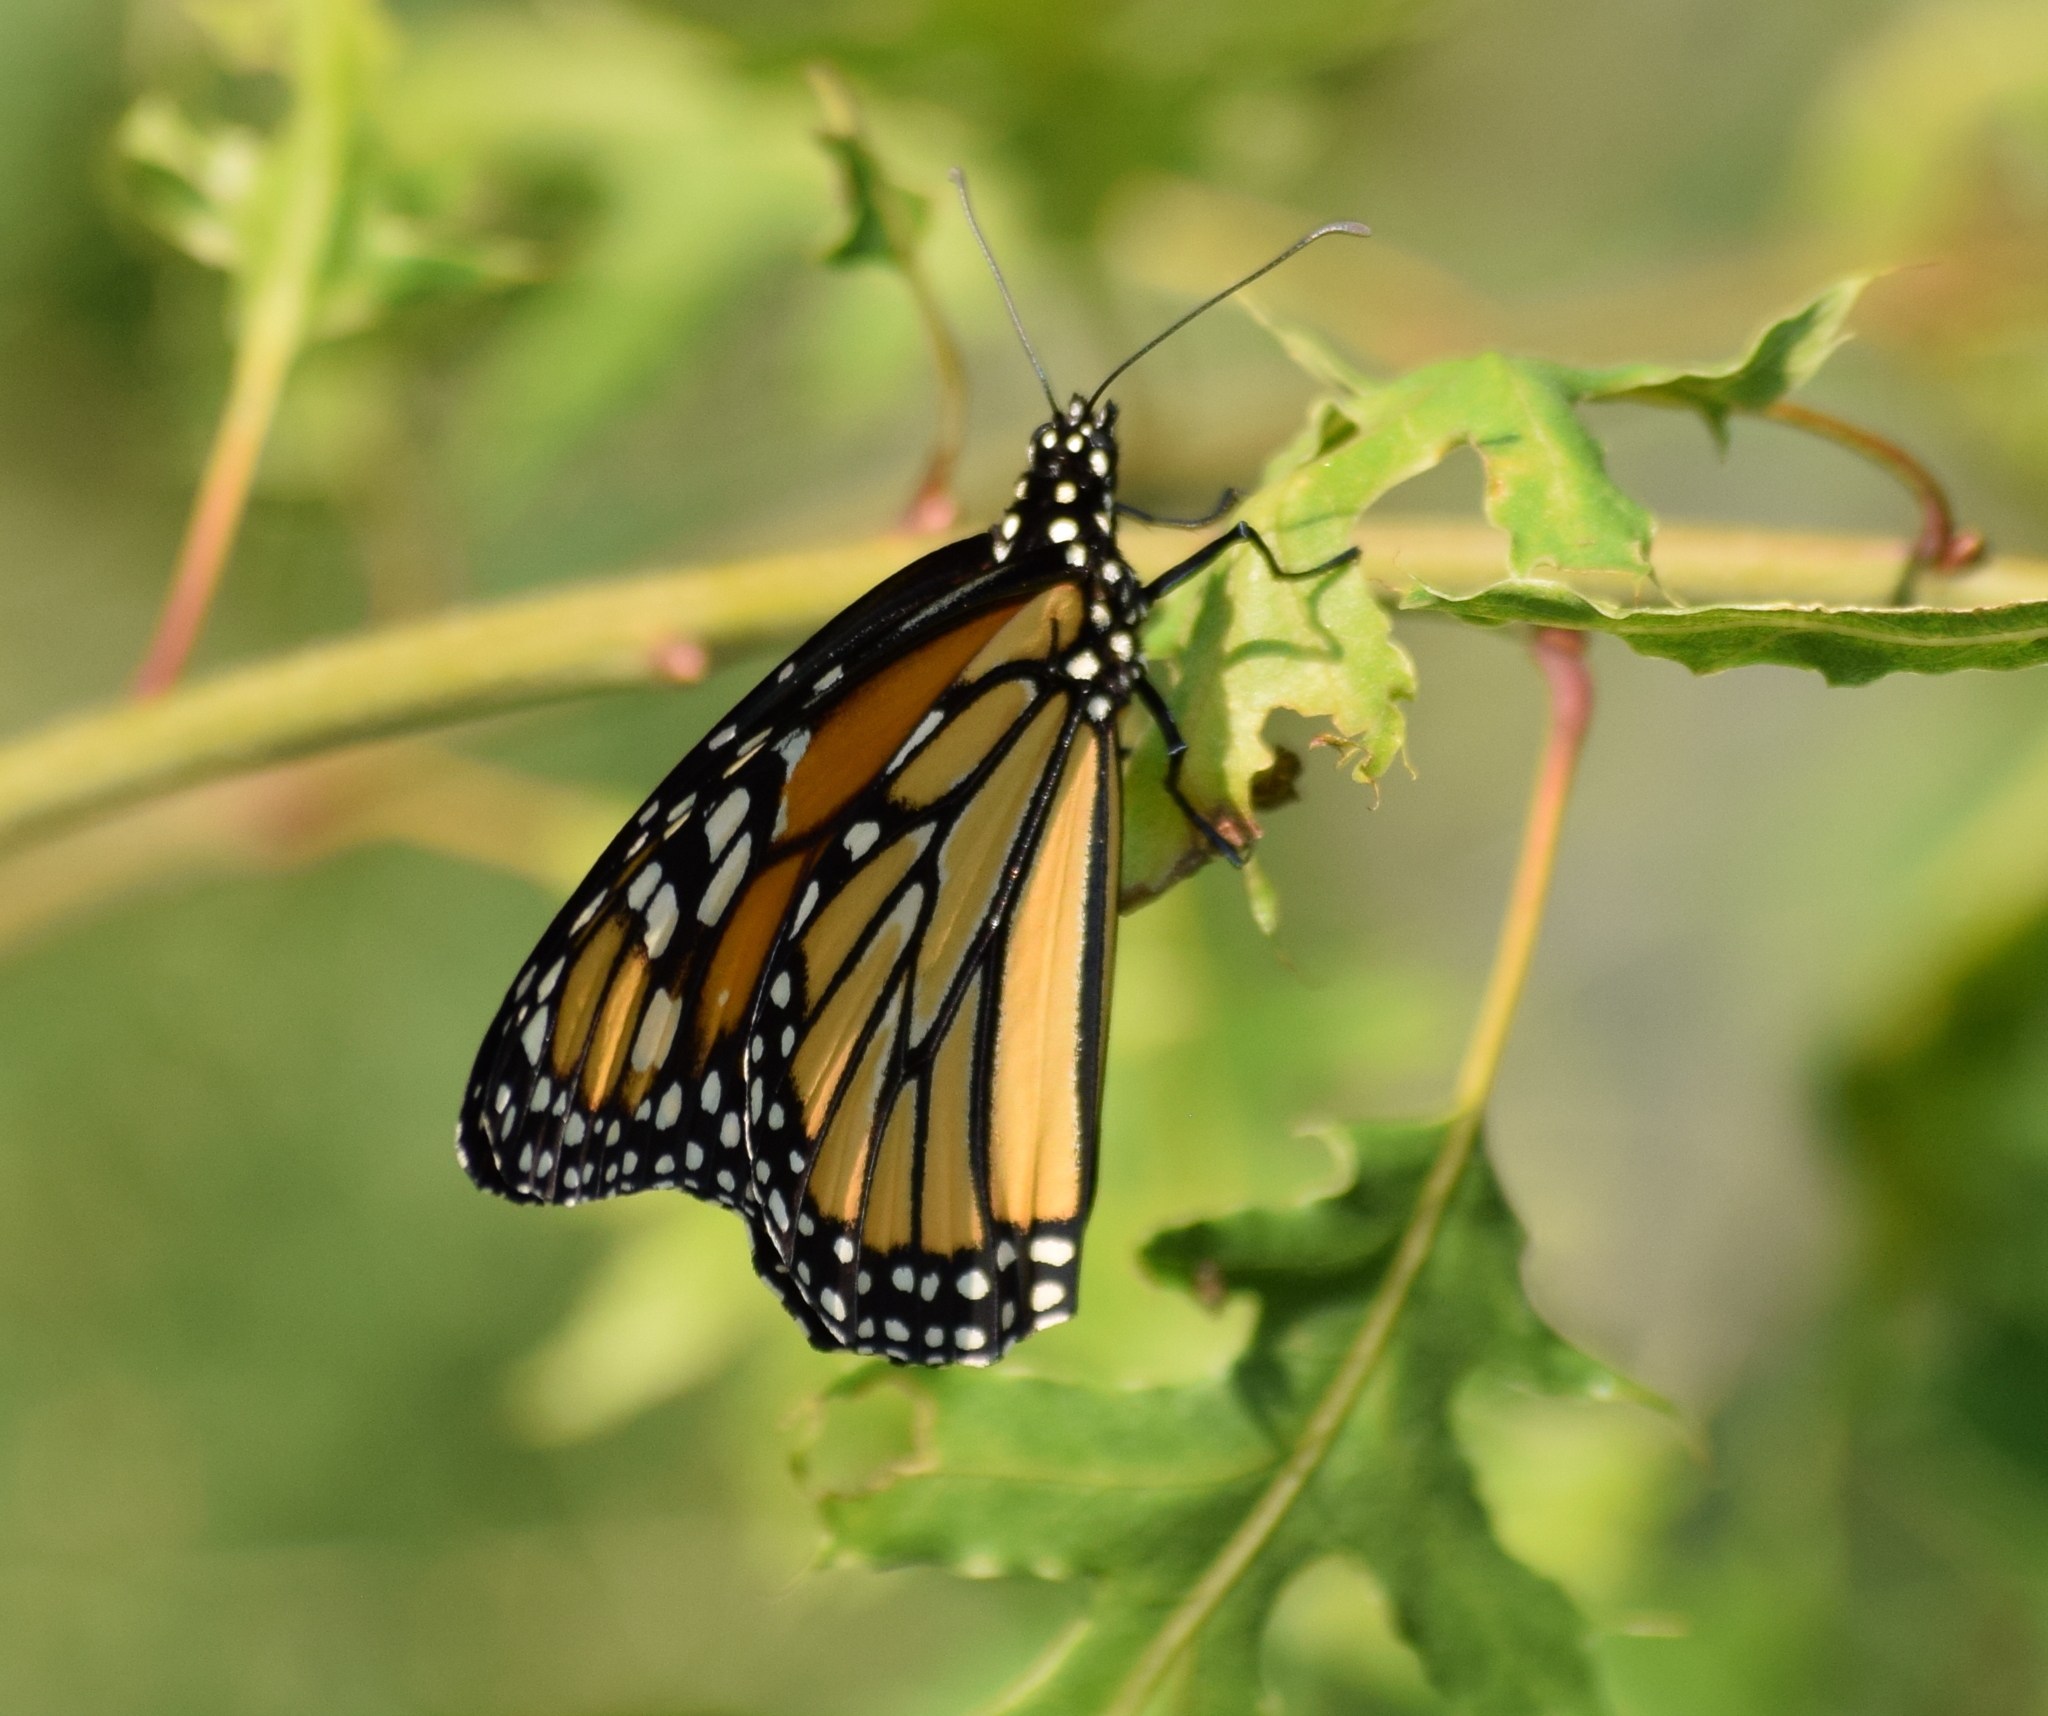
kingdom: Animalia
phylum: Arthropoda
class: Insecta
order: Lepidoptera
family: Nymphalidae
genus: Danaus
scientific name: Danaus plexippus
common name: Monarch
